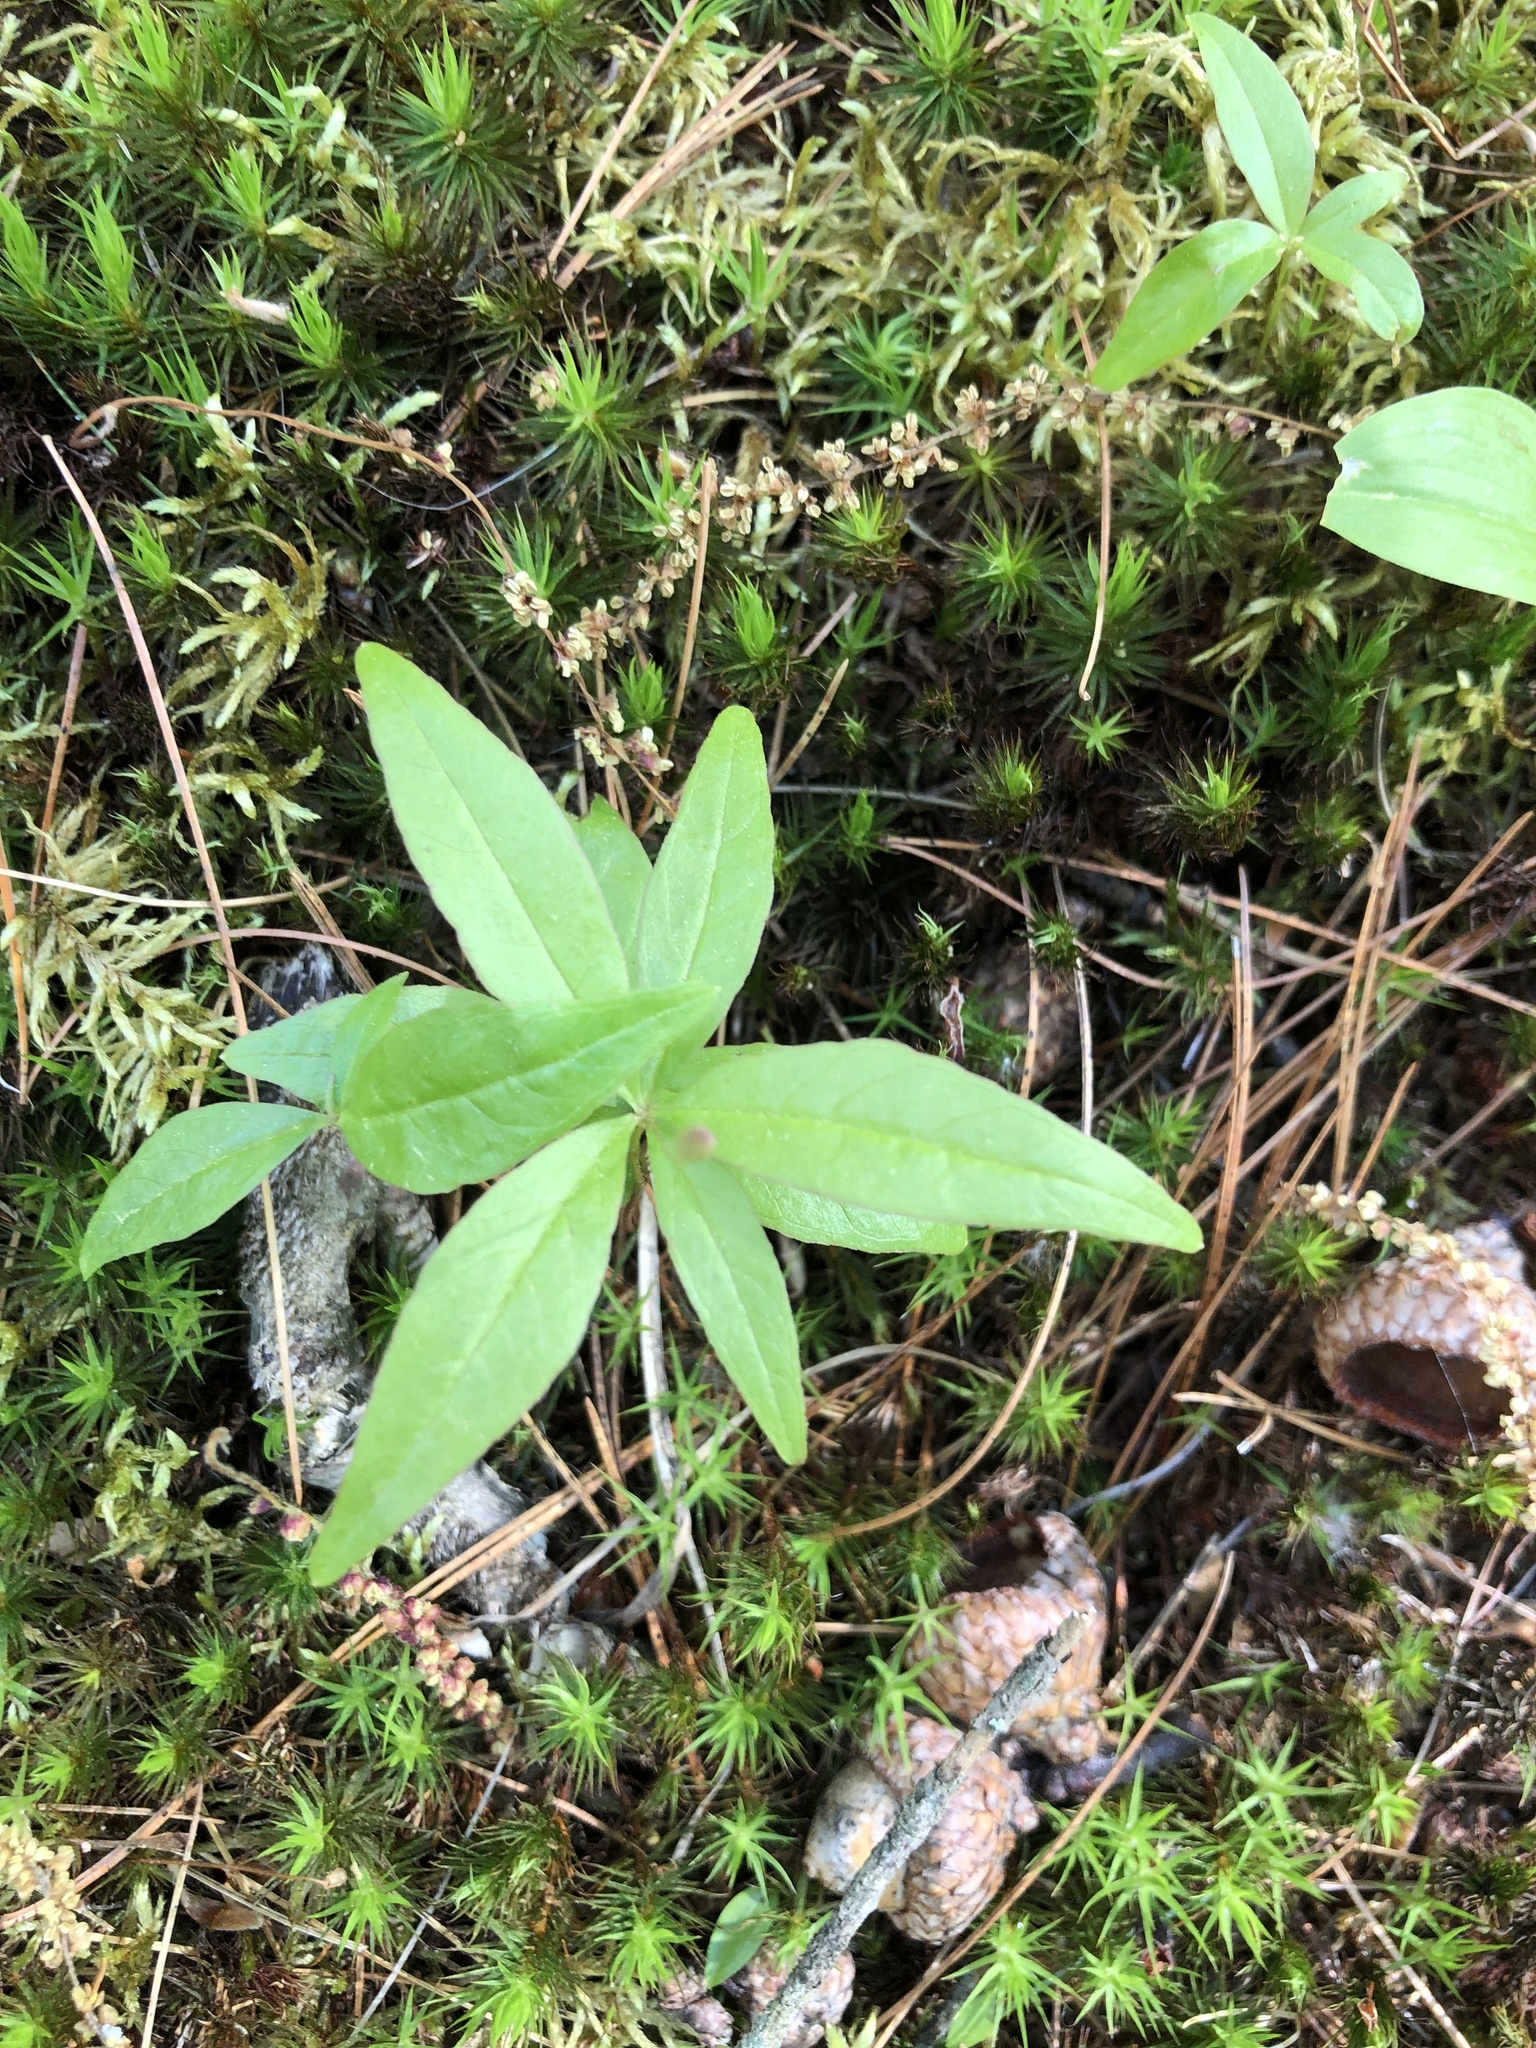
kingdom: Plantae
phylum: Tracheophyta
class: Magnoliopsida
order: Ericales
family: Primulaceae
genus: Lysimachia
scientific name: Lysimachia borealis
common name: American starflower
